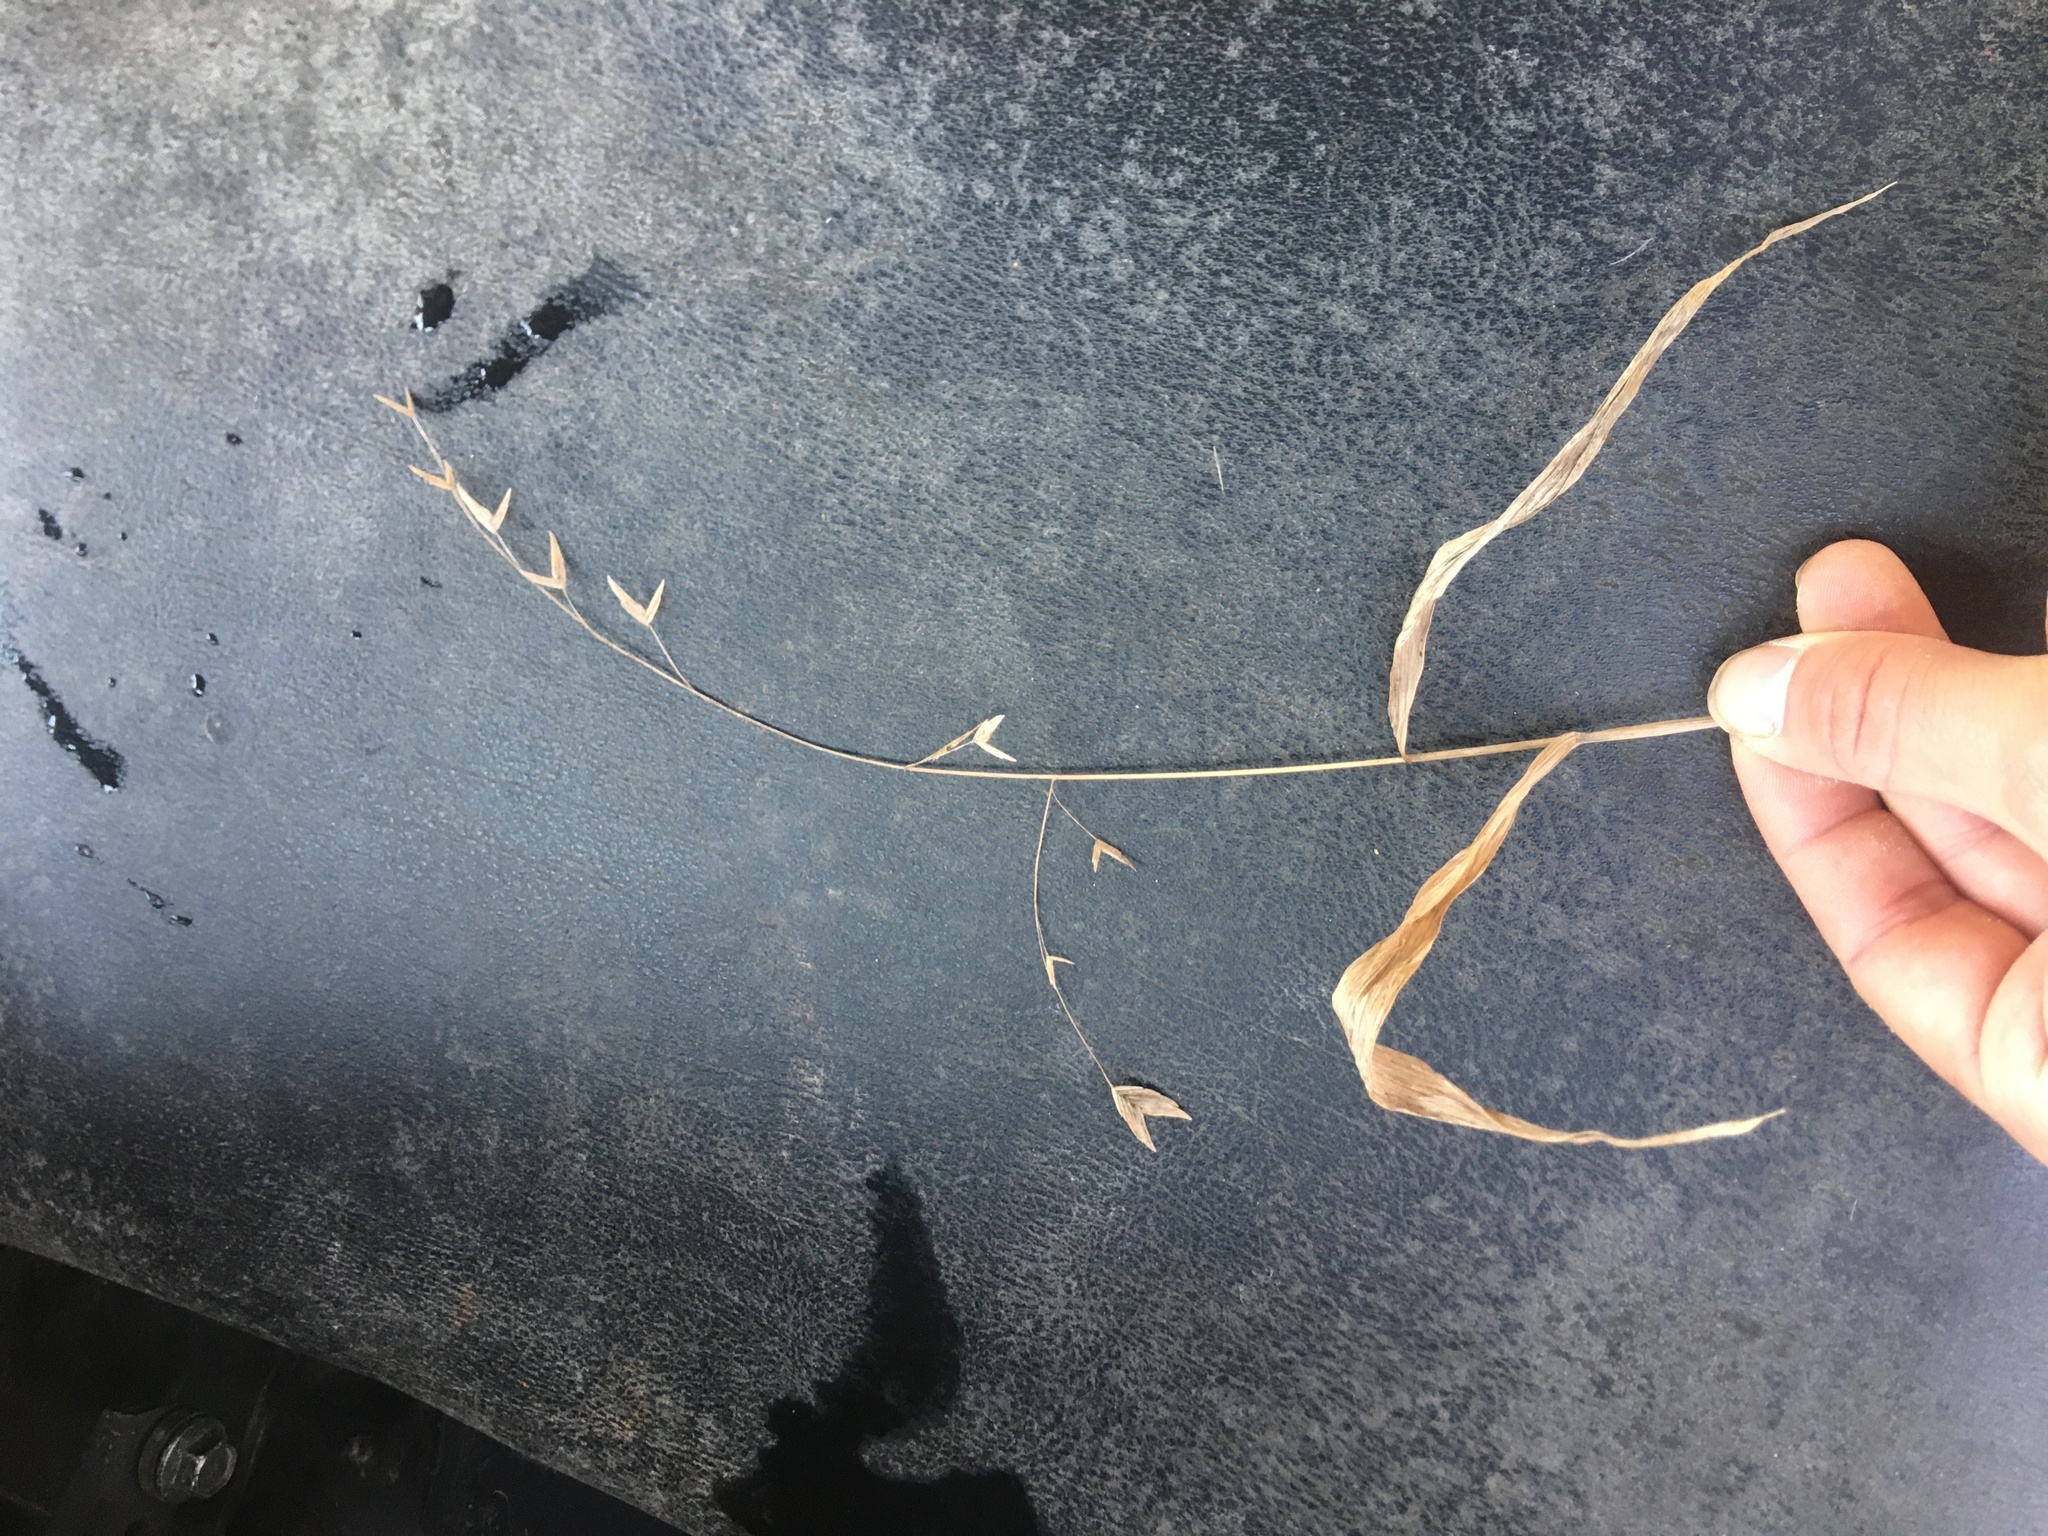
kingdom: Plantae
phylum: Tracheophyta
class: Liliopsida
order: Poales
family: Poaceae
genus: Chasmanthium
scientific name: Chasmanthium latifolium
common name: Broad-leaved chasmanthium
